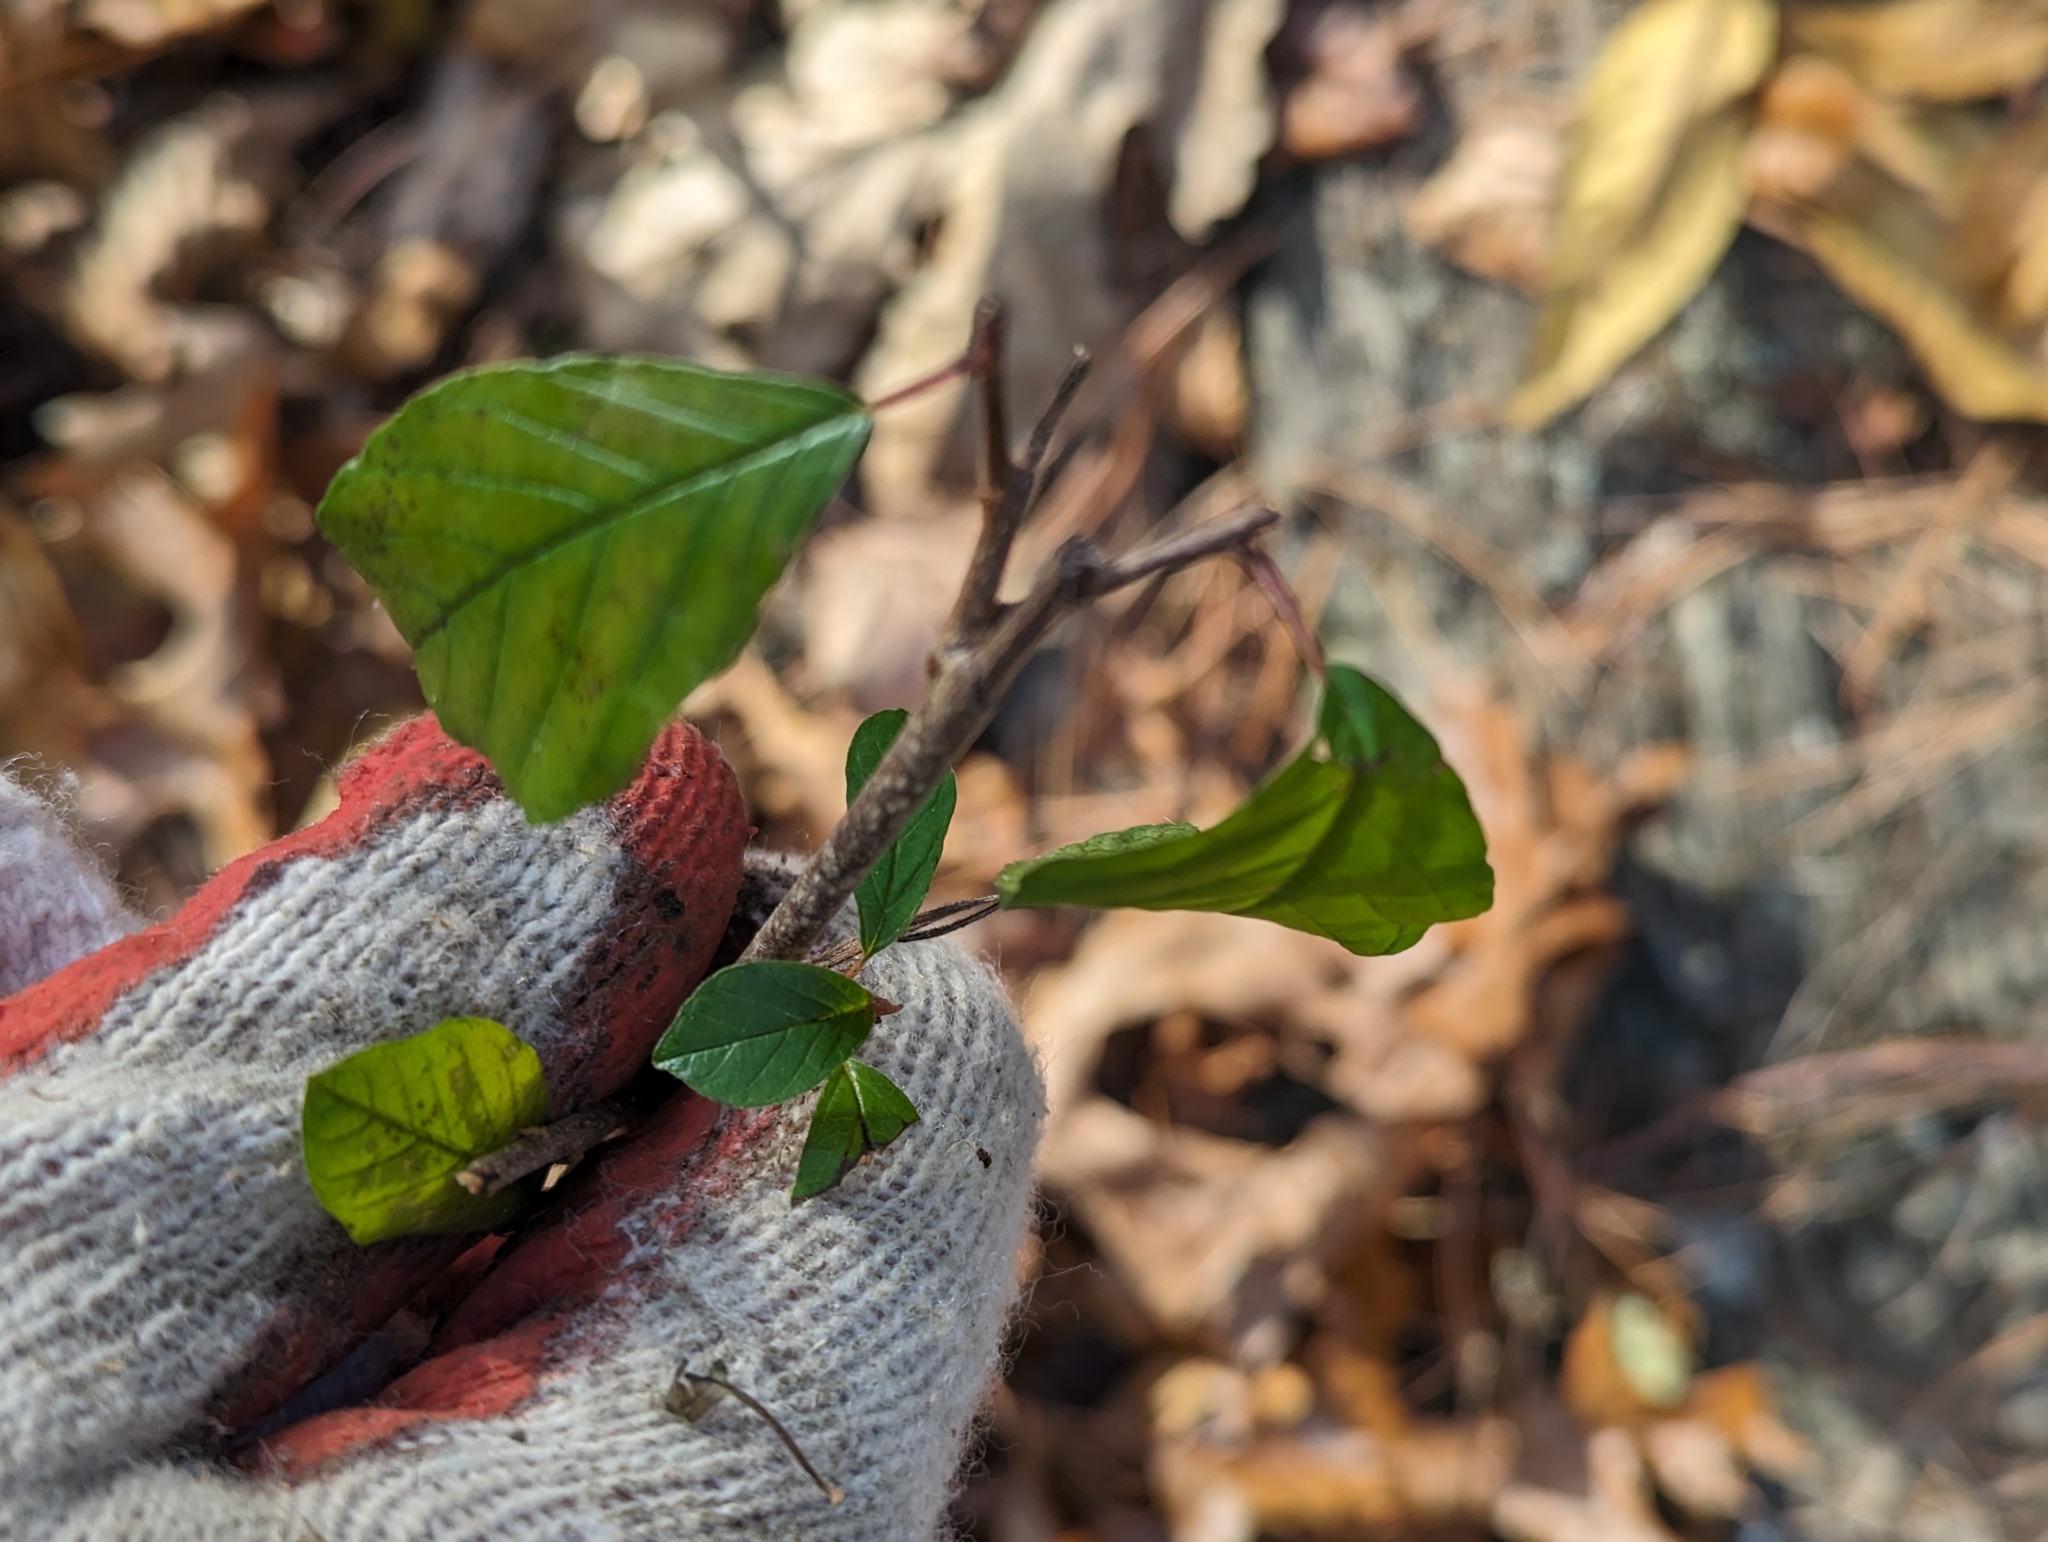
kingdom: Plantae
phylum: Tracheophyta
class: Magnoliopsida
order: Rosales
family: Rhamnaceae
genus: Frangula
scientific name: Frangula alnus
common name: Alder buckthorn
